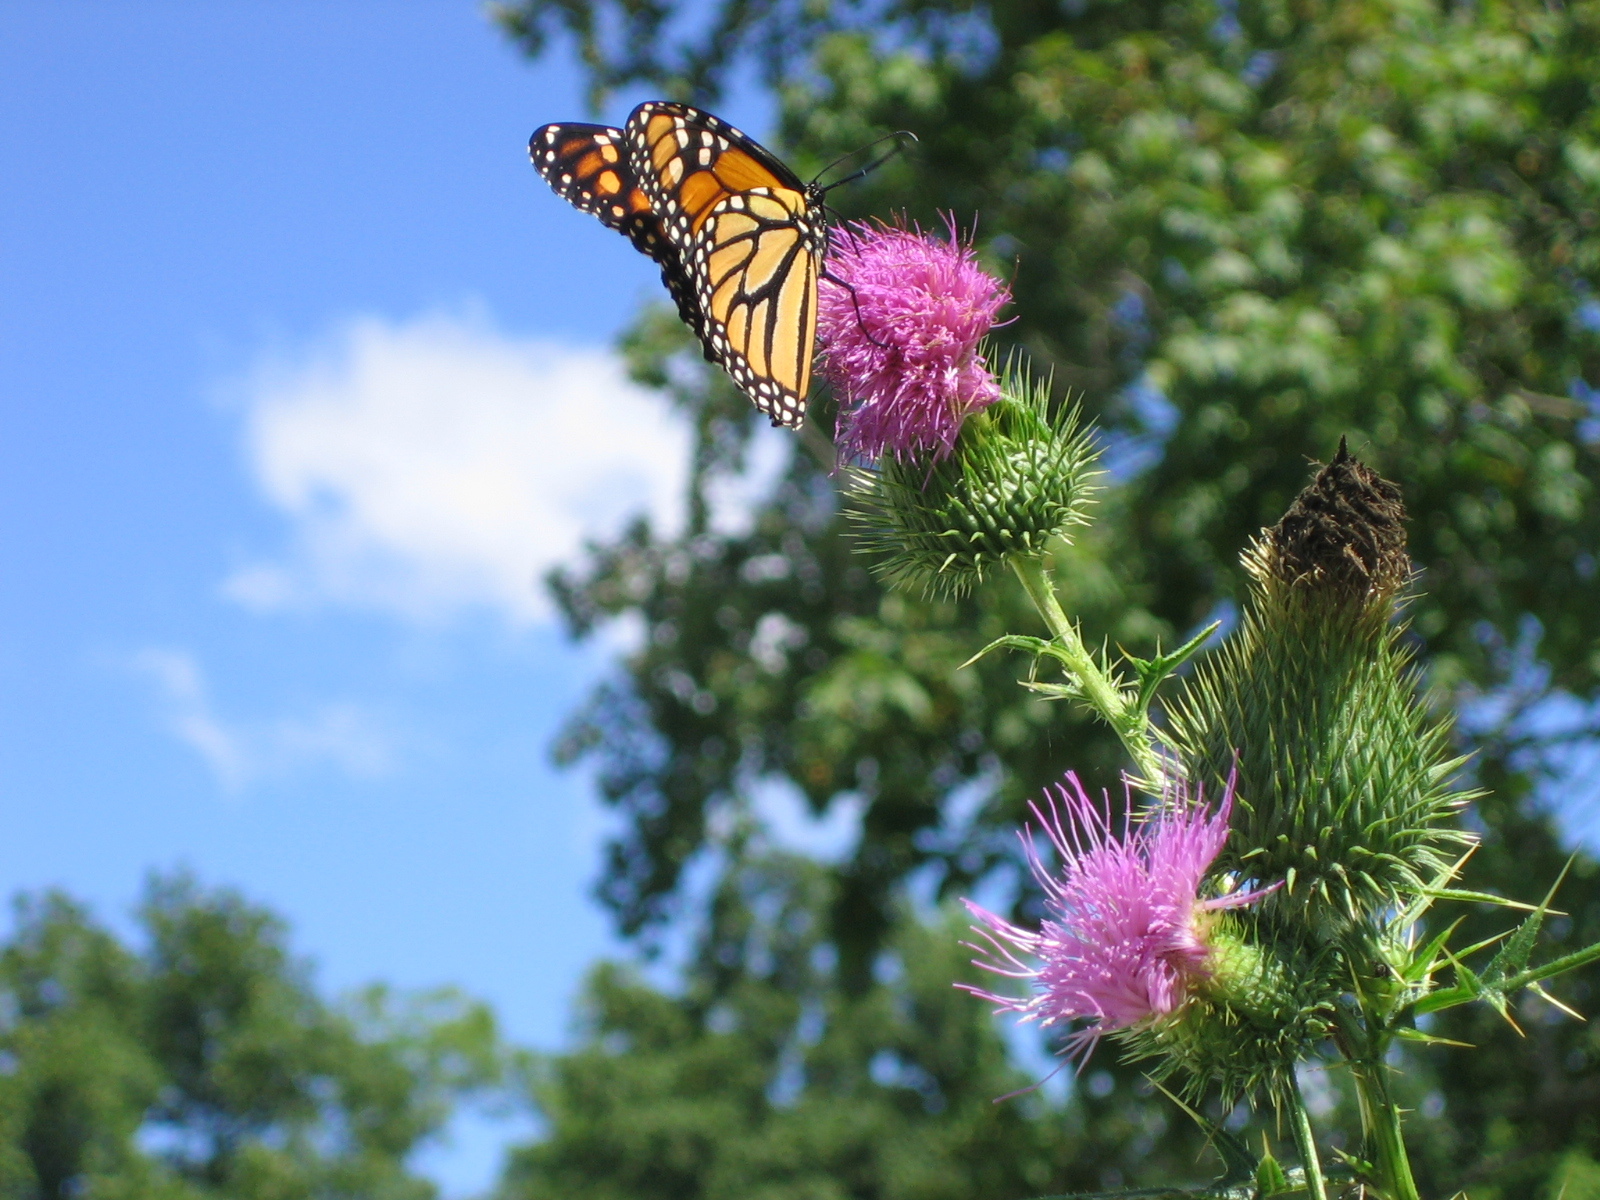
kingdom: Animalia
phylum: Arthropoda
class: Insecta
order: Lepidoptera
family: Nymphalidae
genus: Danaus
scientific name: Danaus plexippus
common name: Monarch
